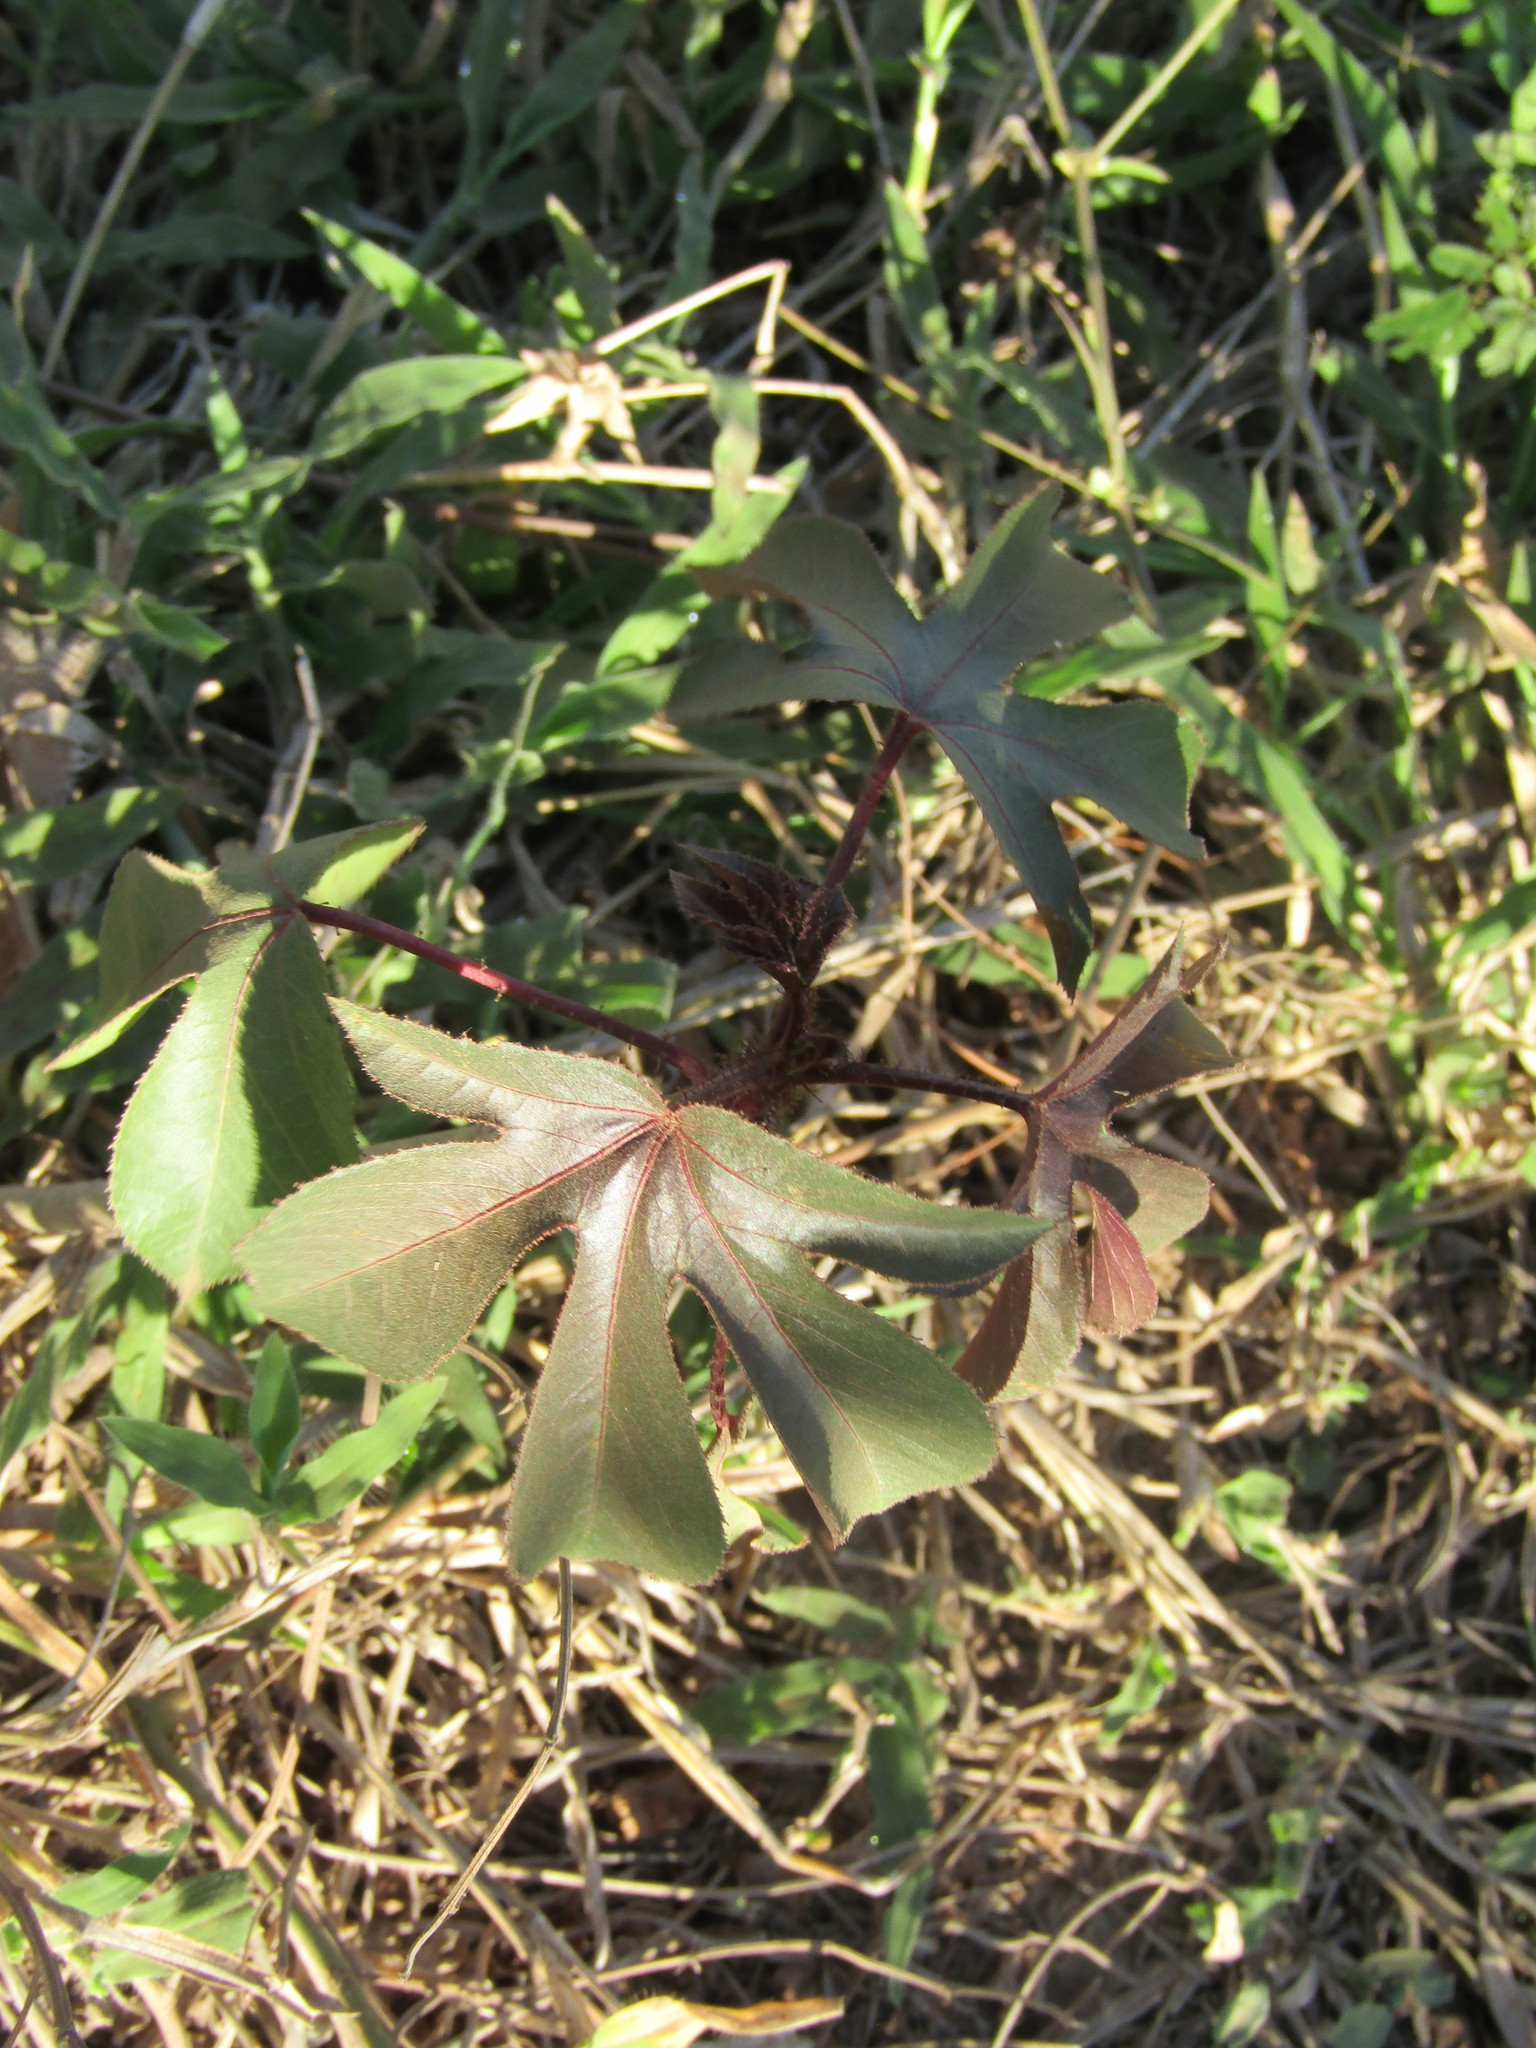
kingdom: Plantae
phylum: Tracheophyta
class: Magnoliopsida
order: Malpighiales
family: Euphorbiaceae
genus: Jatropha
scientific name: Jatropha gossypiifolia
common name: Bellyache bush
